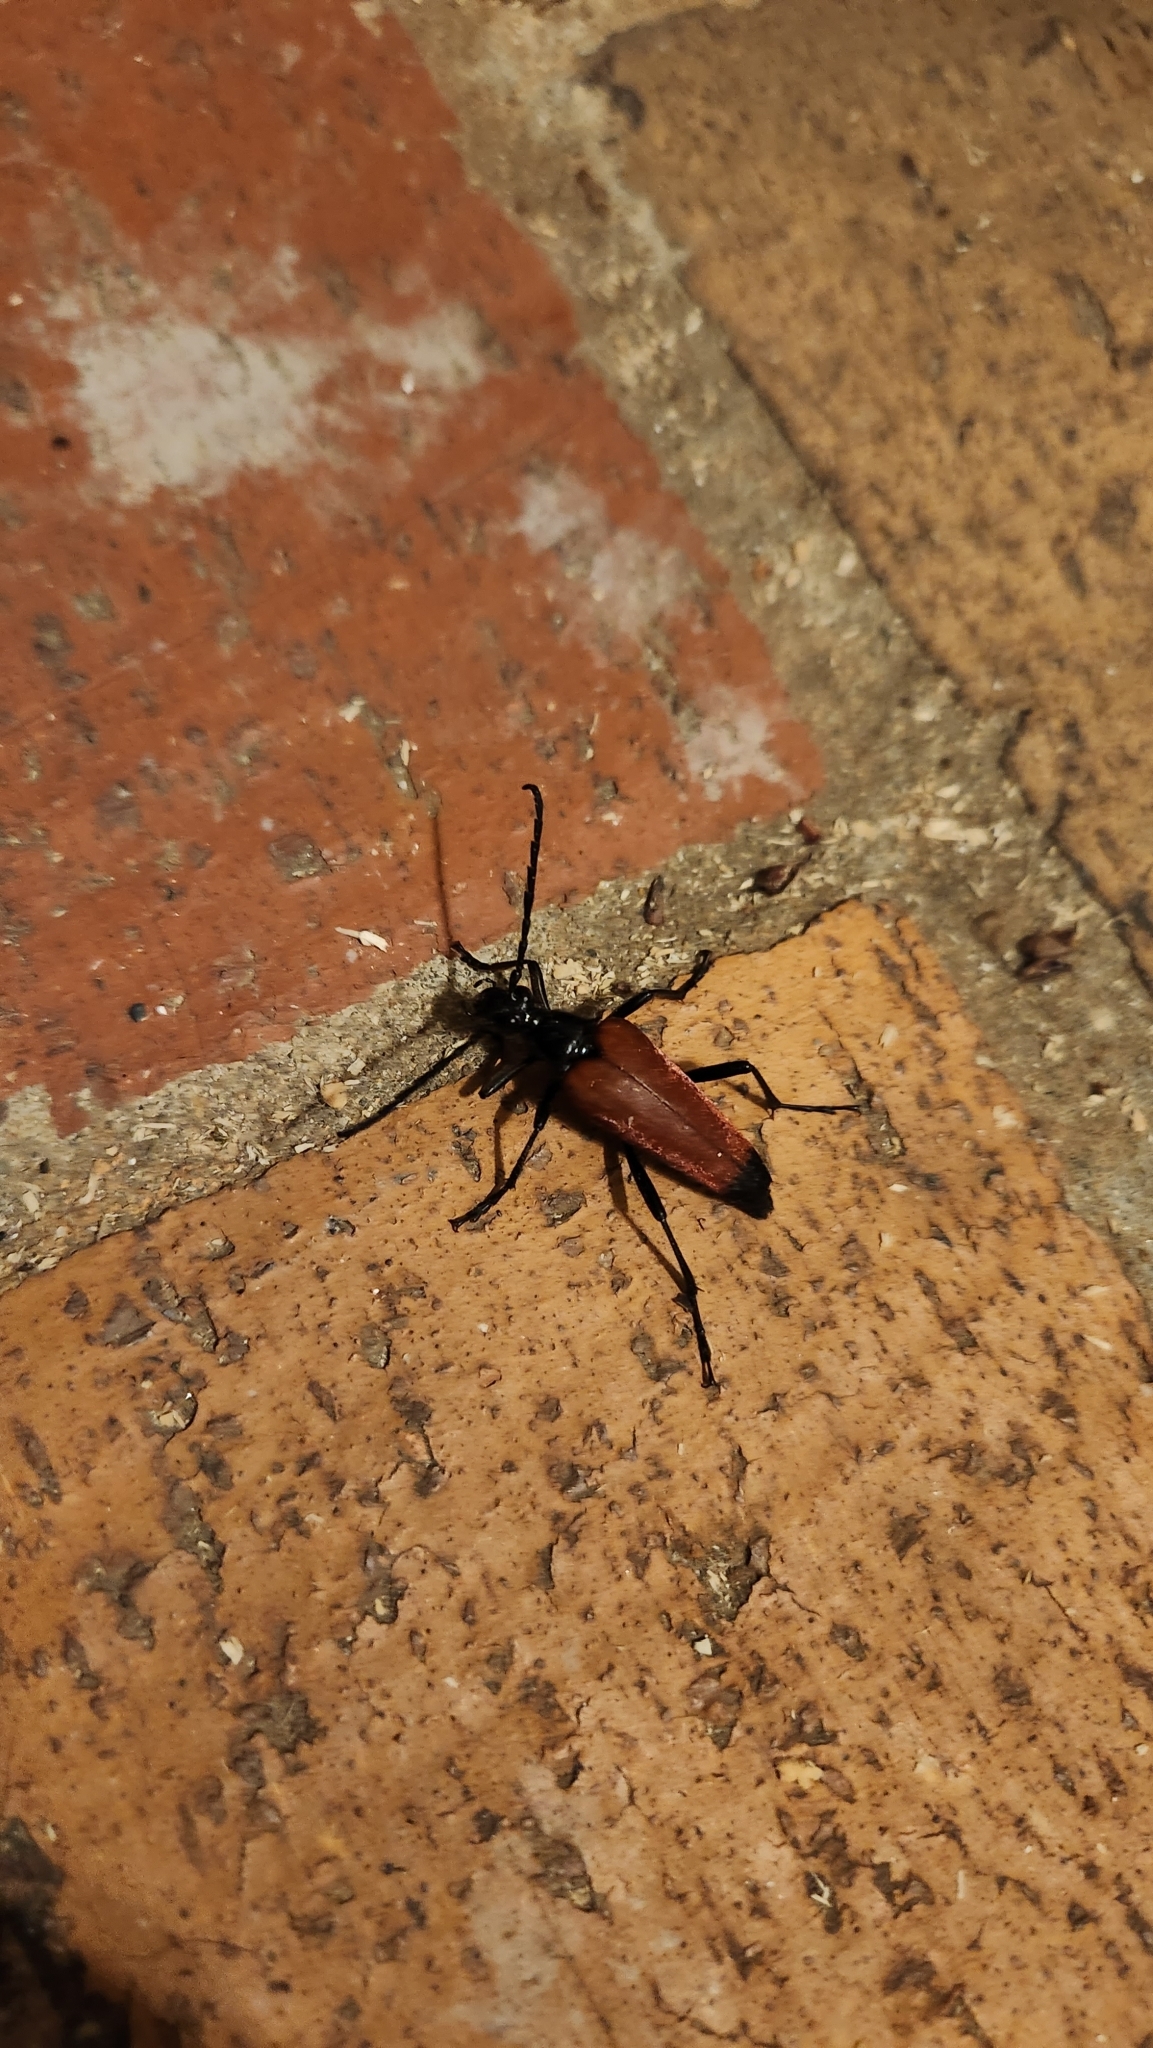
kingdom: Animalia
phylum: Arthropoda
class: Insecta
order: Coleoptera
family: Cerambycidae
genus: Stenelytrana
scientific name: Stenelytrana emarginata
